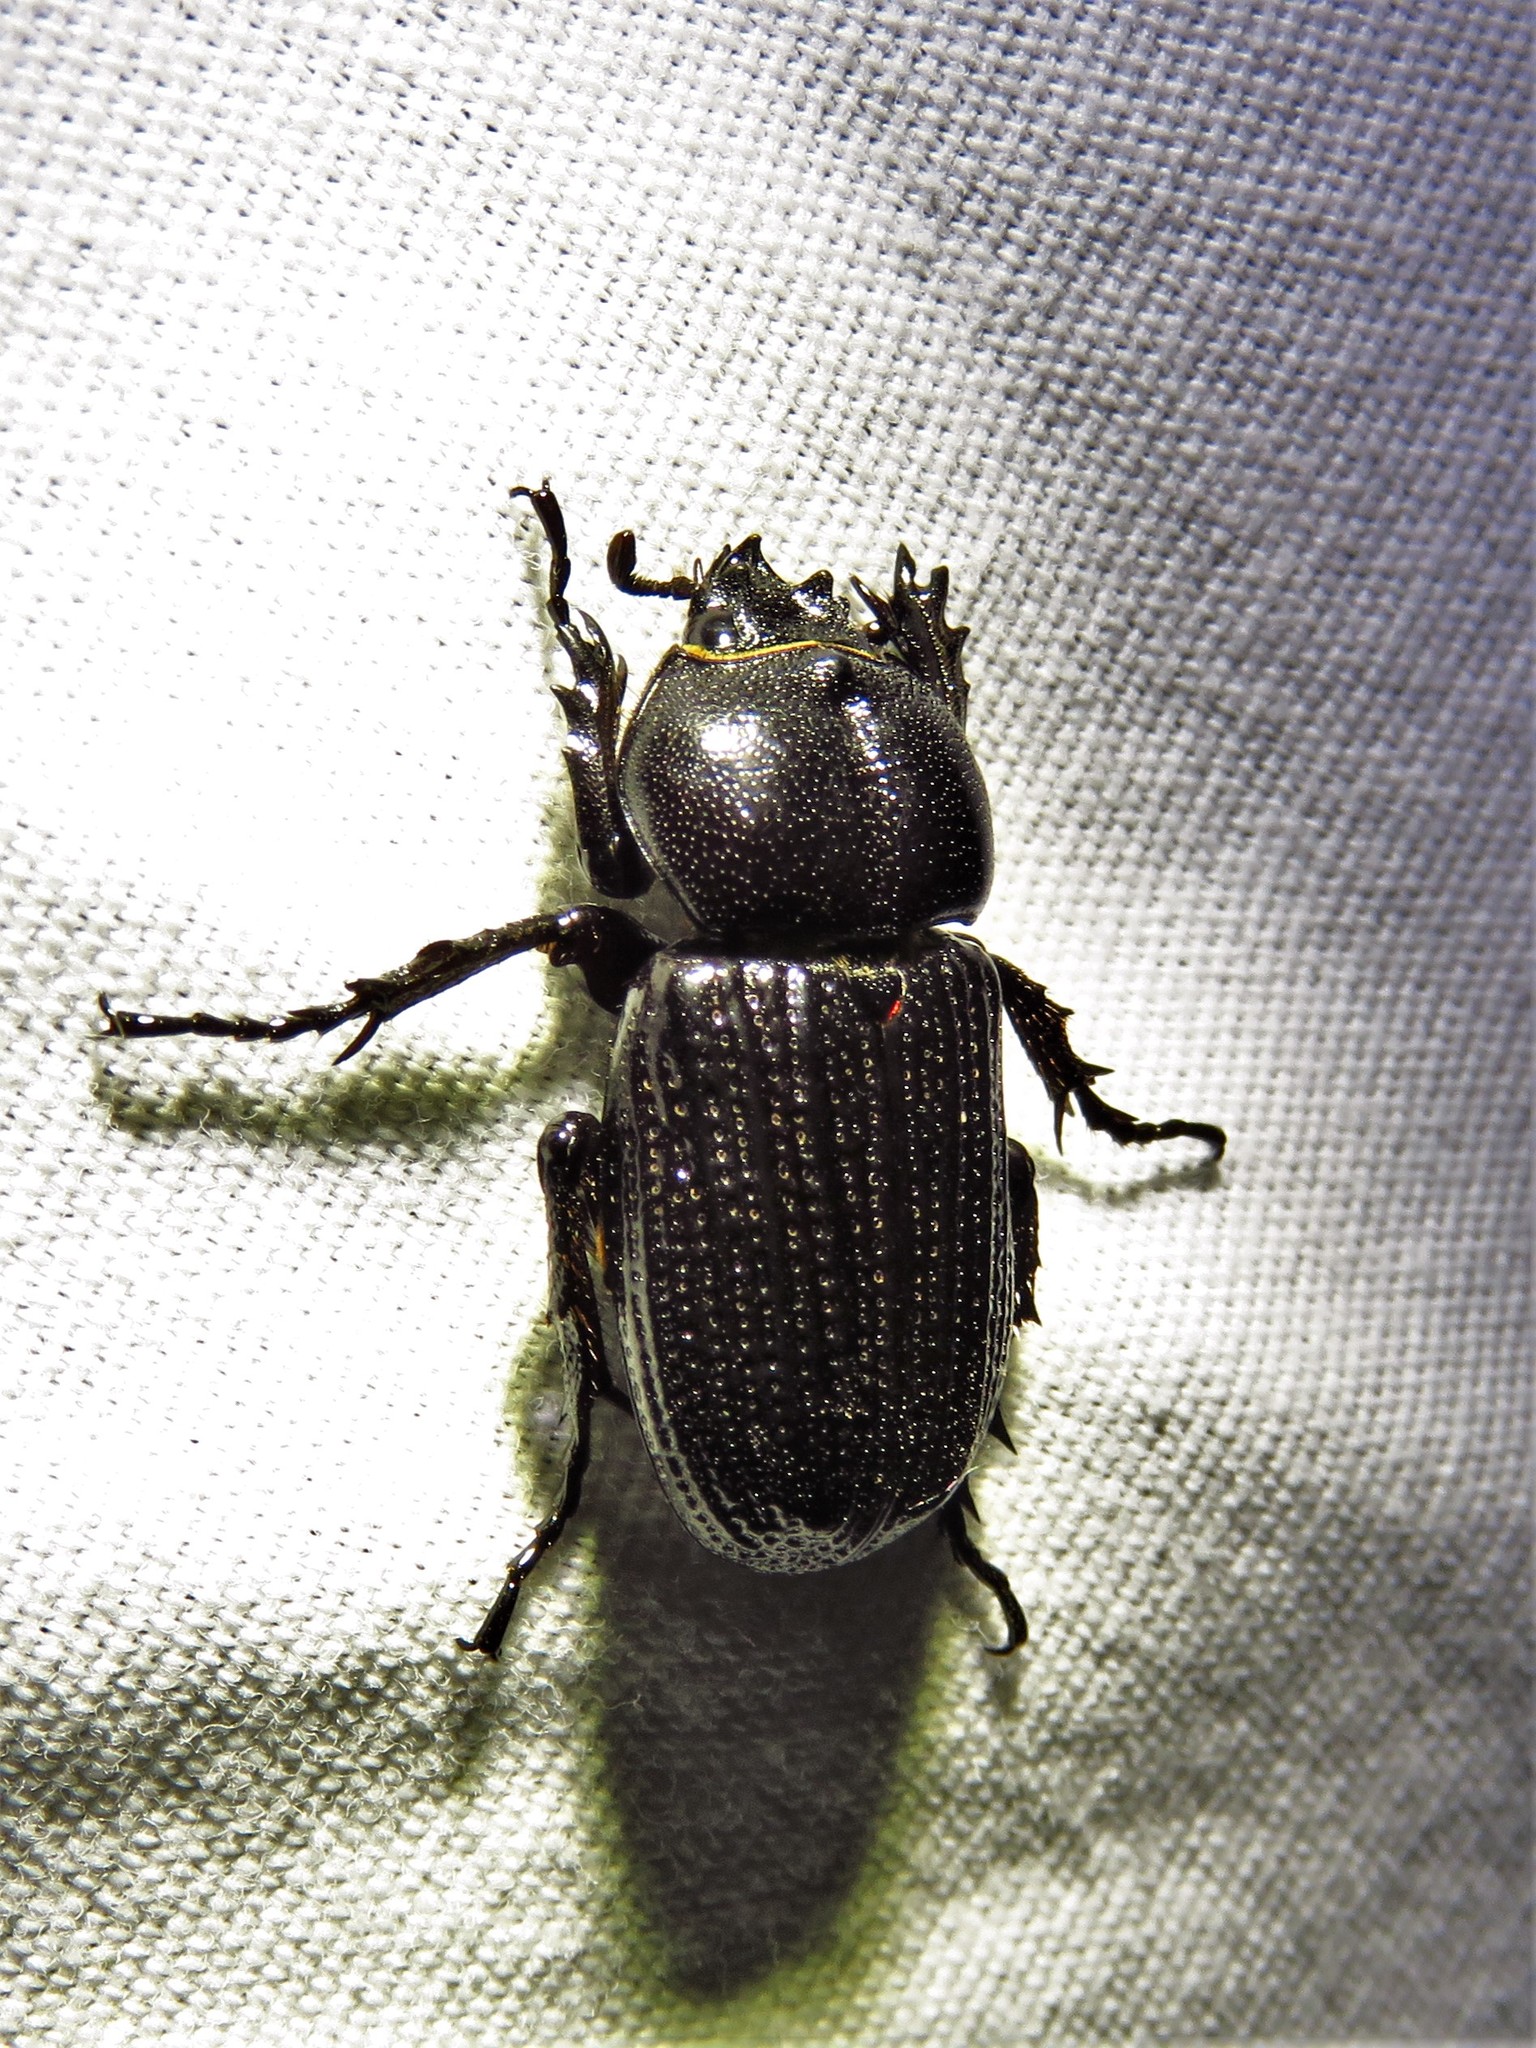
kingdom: Animalia
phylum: Arthropoda
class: Insecta
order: Coleoptera
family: Scarabaeidae
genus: Phileurus
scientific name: Phileurus valgus
